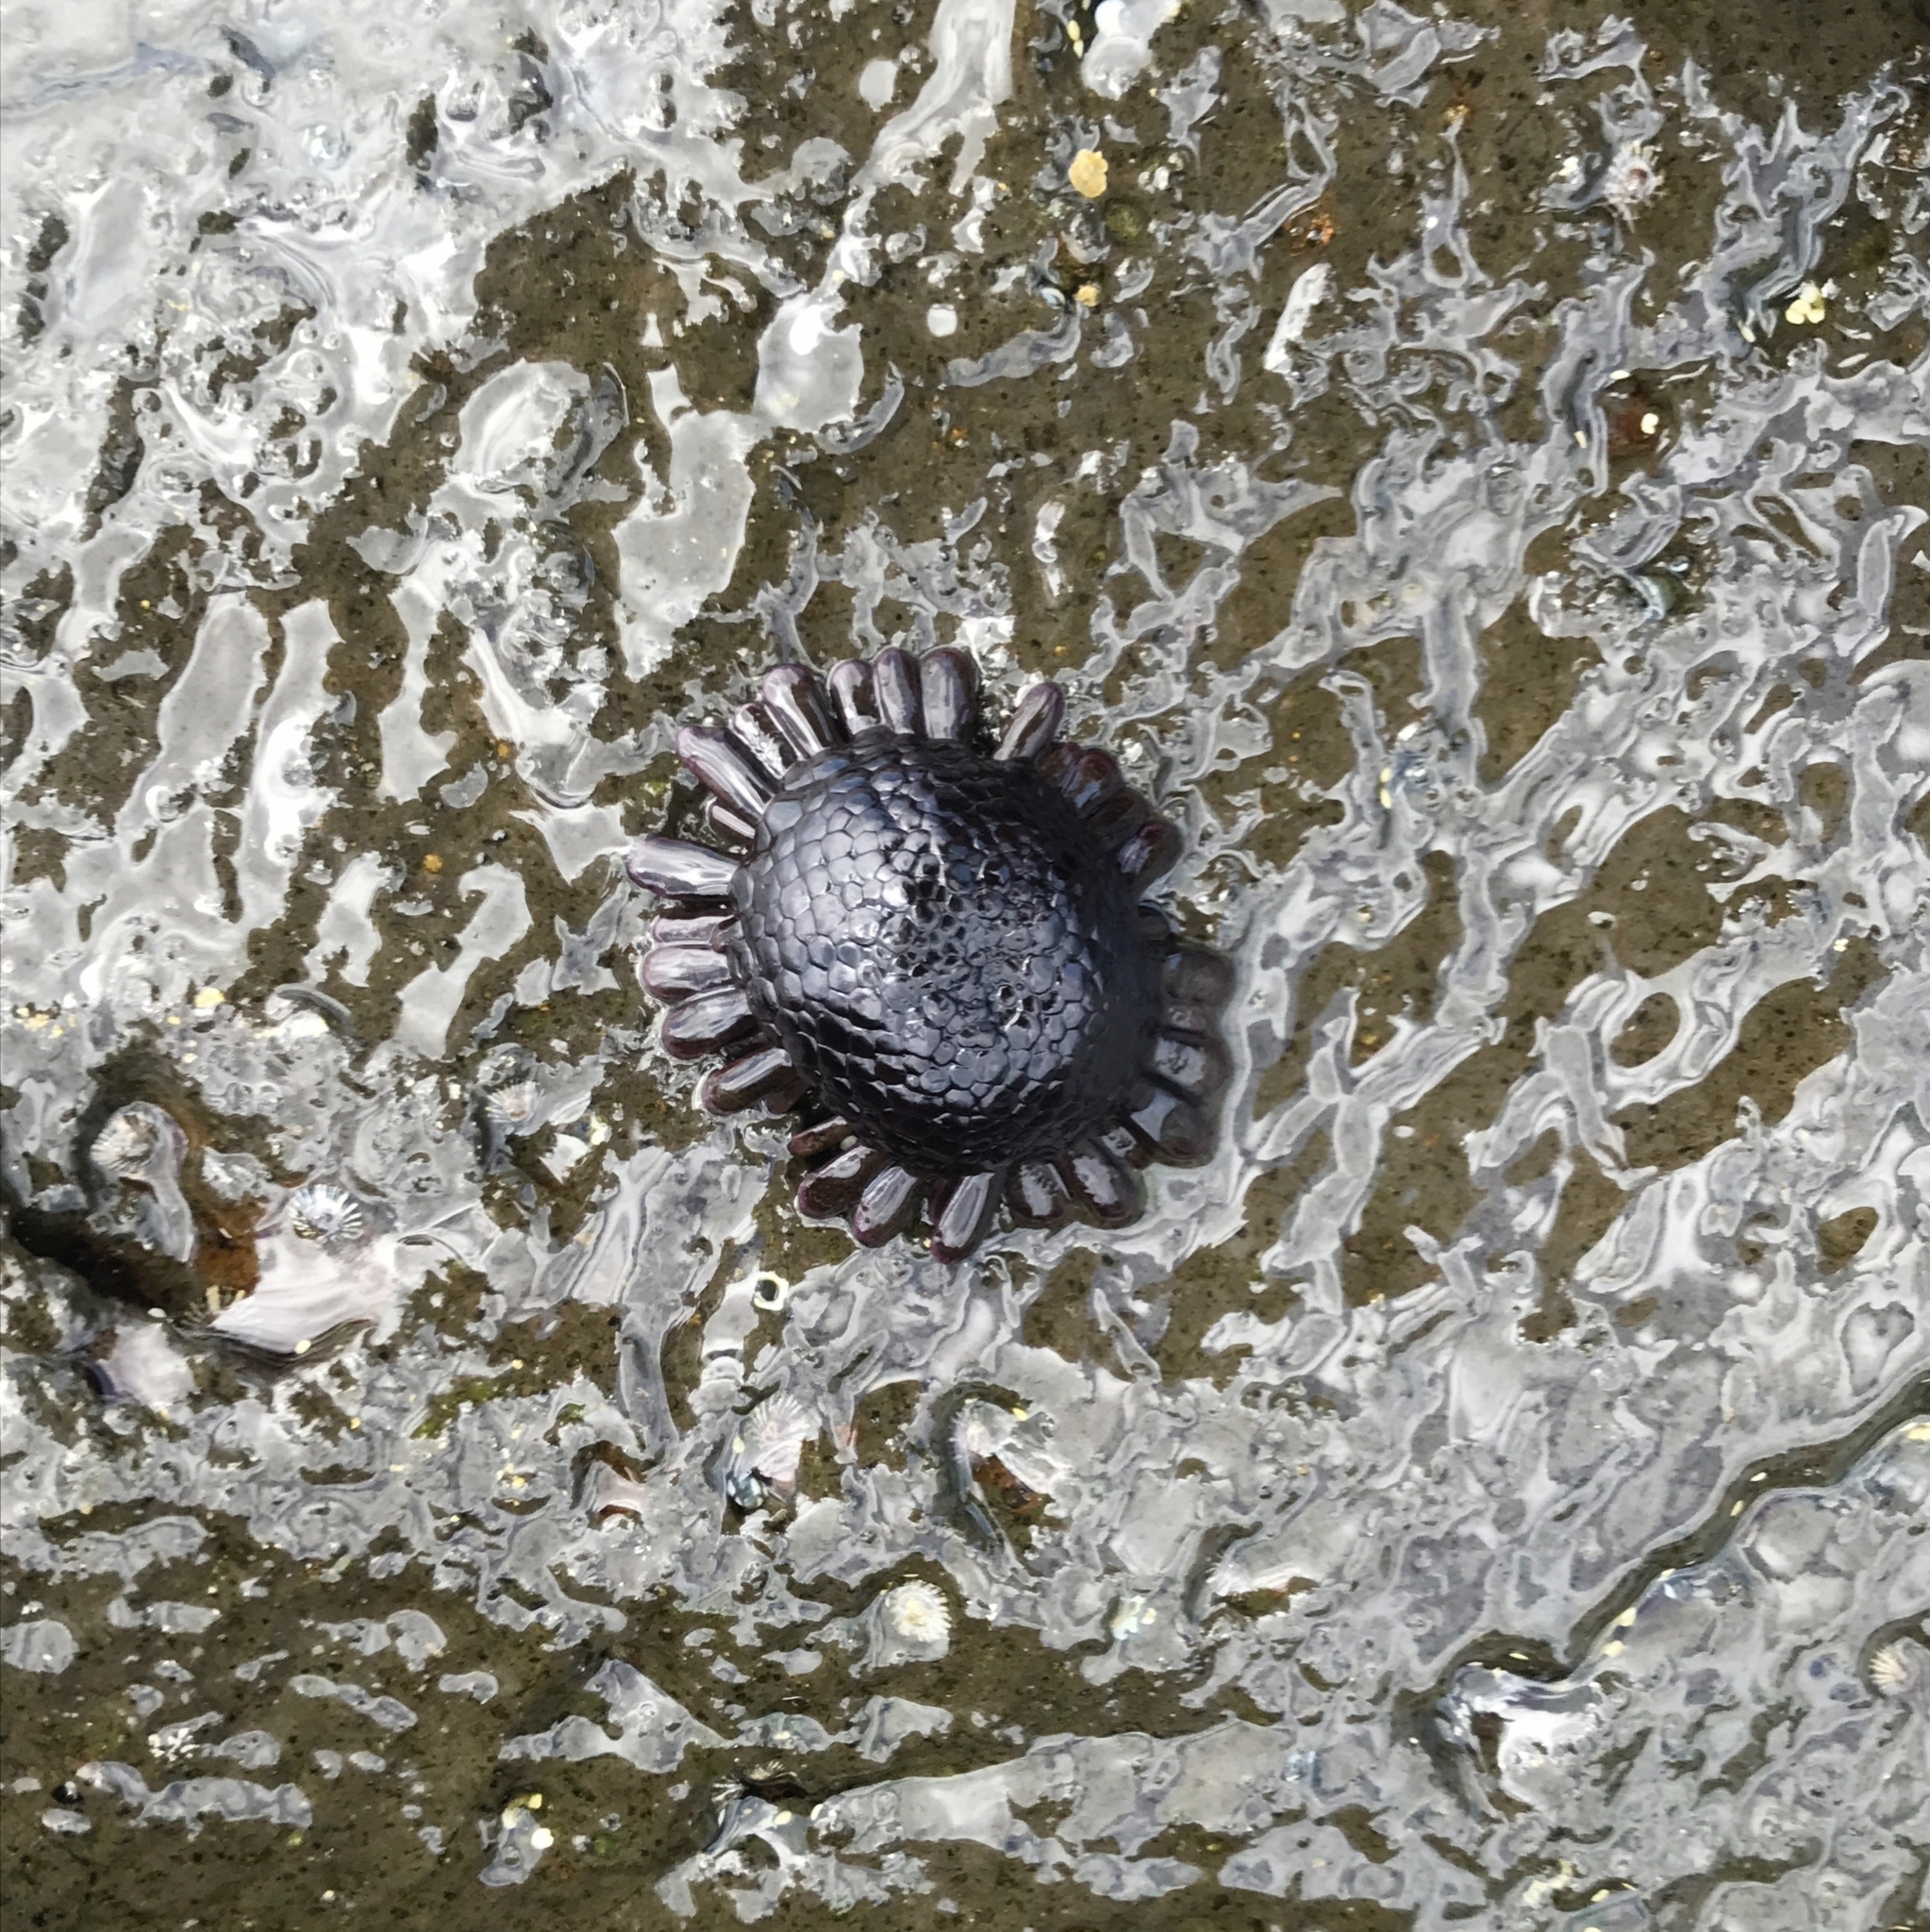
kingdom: Animalia
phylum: Echinodermata
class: Echinoidea
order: Camarodonta
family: Echinometridae
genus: Colobocentrotus
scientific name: Colobocentrotus atratus
